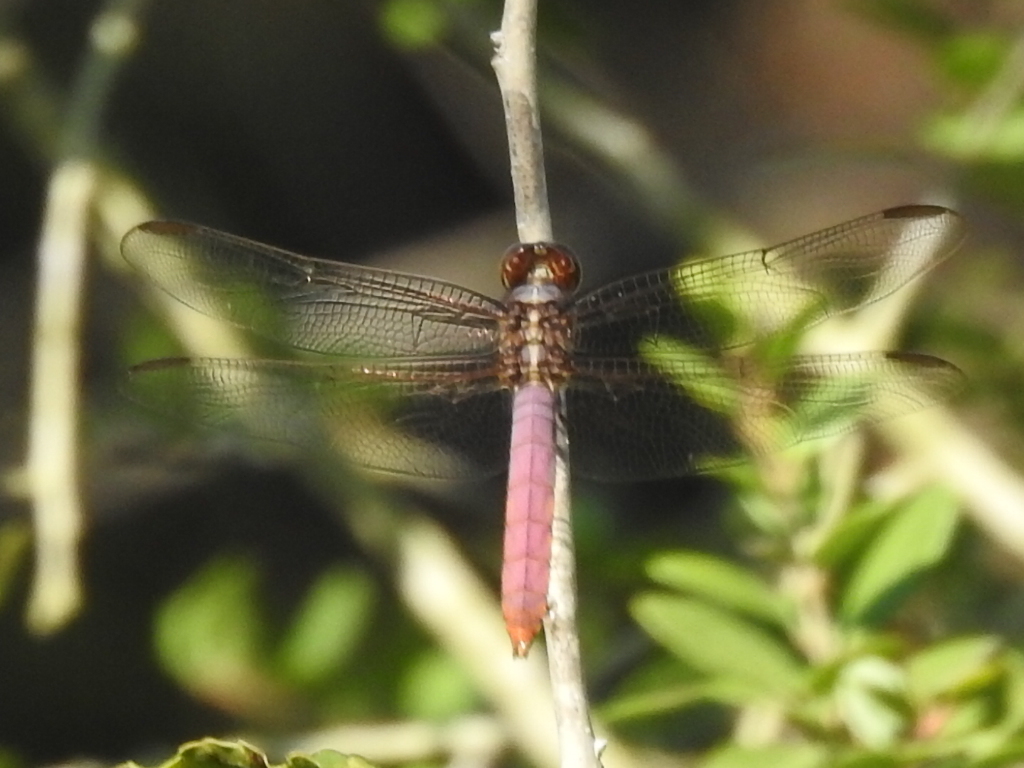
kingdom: Animalia
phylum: Arthropoda
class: Insecta
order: Odonata
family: Libellulidae
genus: Orthemis
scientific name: Orthemis ferruginea
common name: Roseate skimmer
